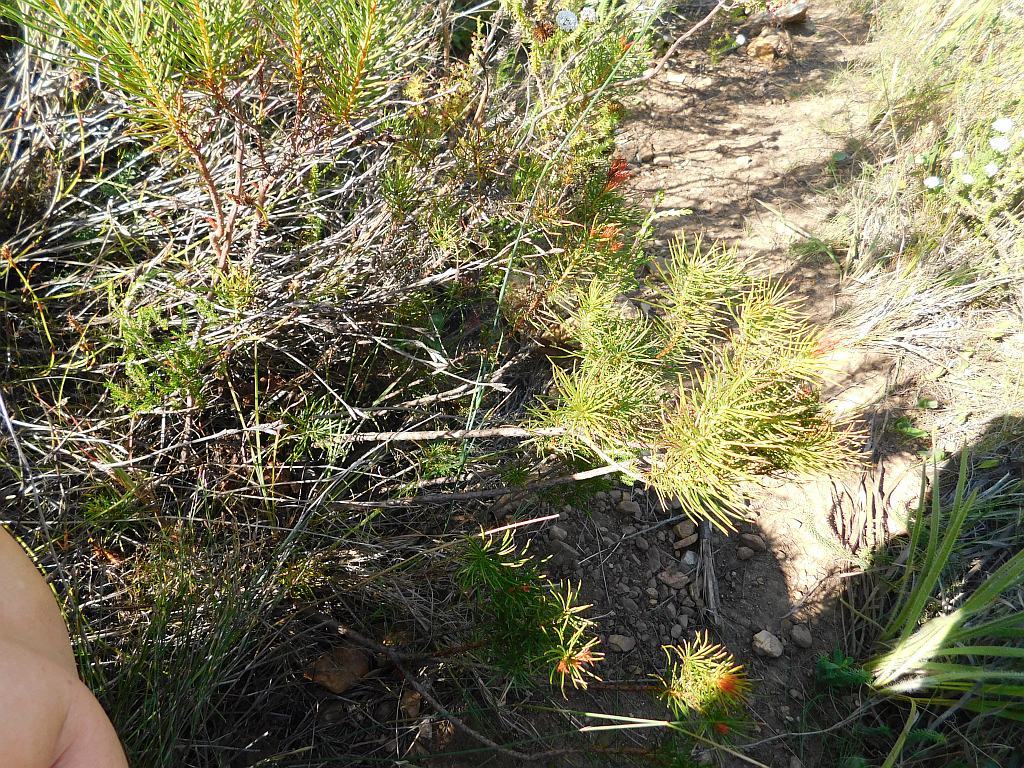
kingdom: Plantae
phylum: Tracheophyta
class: Magnoliopsida
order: Proteales
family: Proteaceae
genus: Protea
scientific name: Protea subulifolia
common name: Awl-leaf sugarbush
